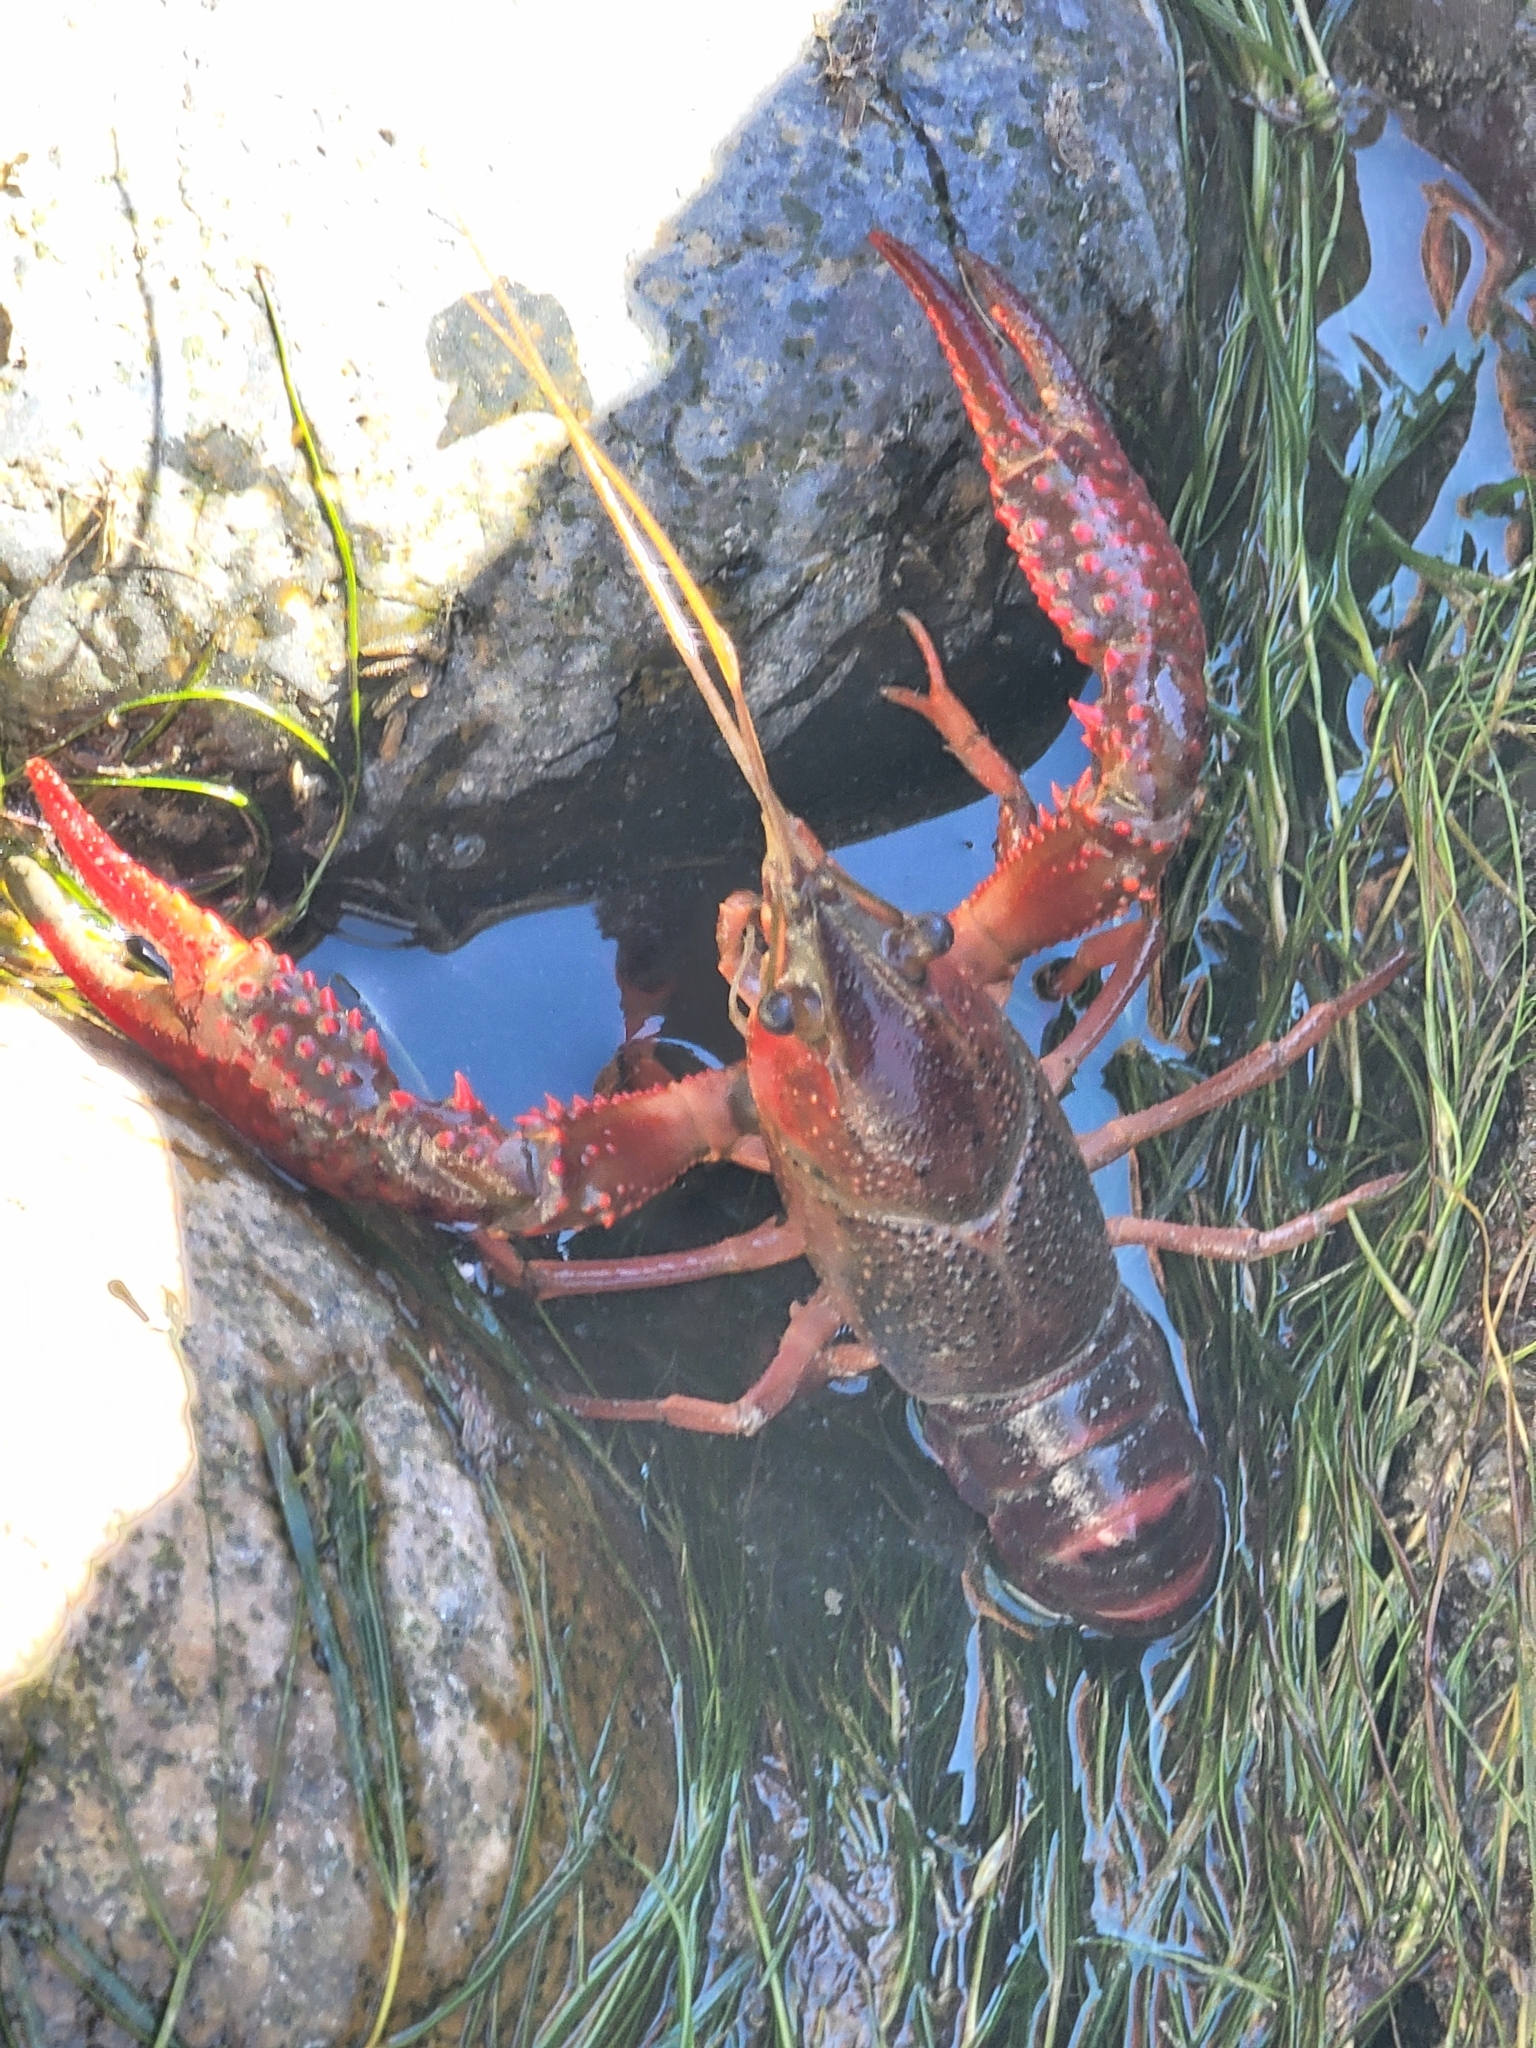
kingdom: Animalia
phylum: Arthropoda
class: Malacostraca
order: Decapoda
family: Cambaridae
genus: Procambarus
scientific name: Procambarus clarkii
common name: Red swamp crayfish
